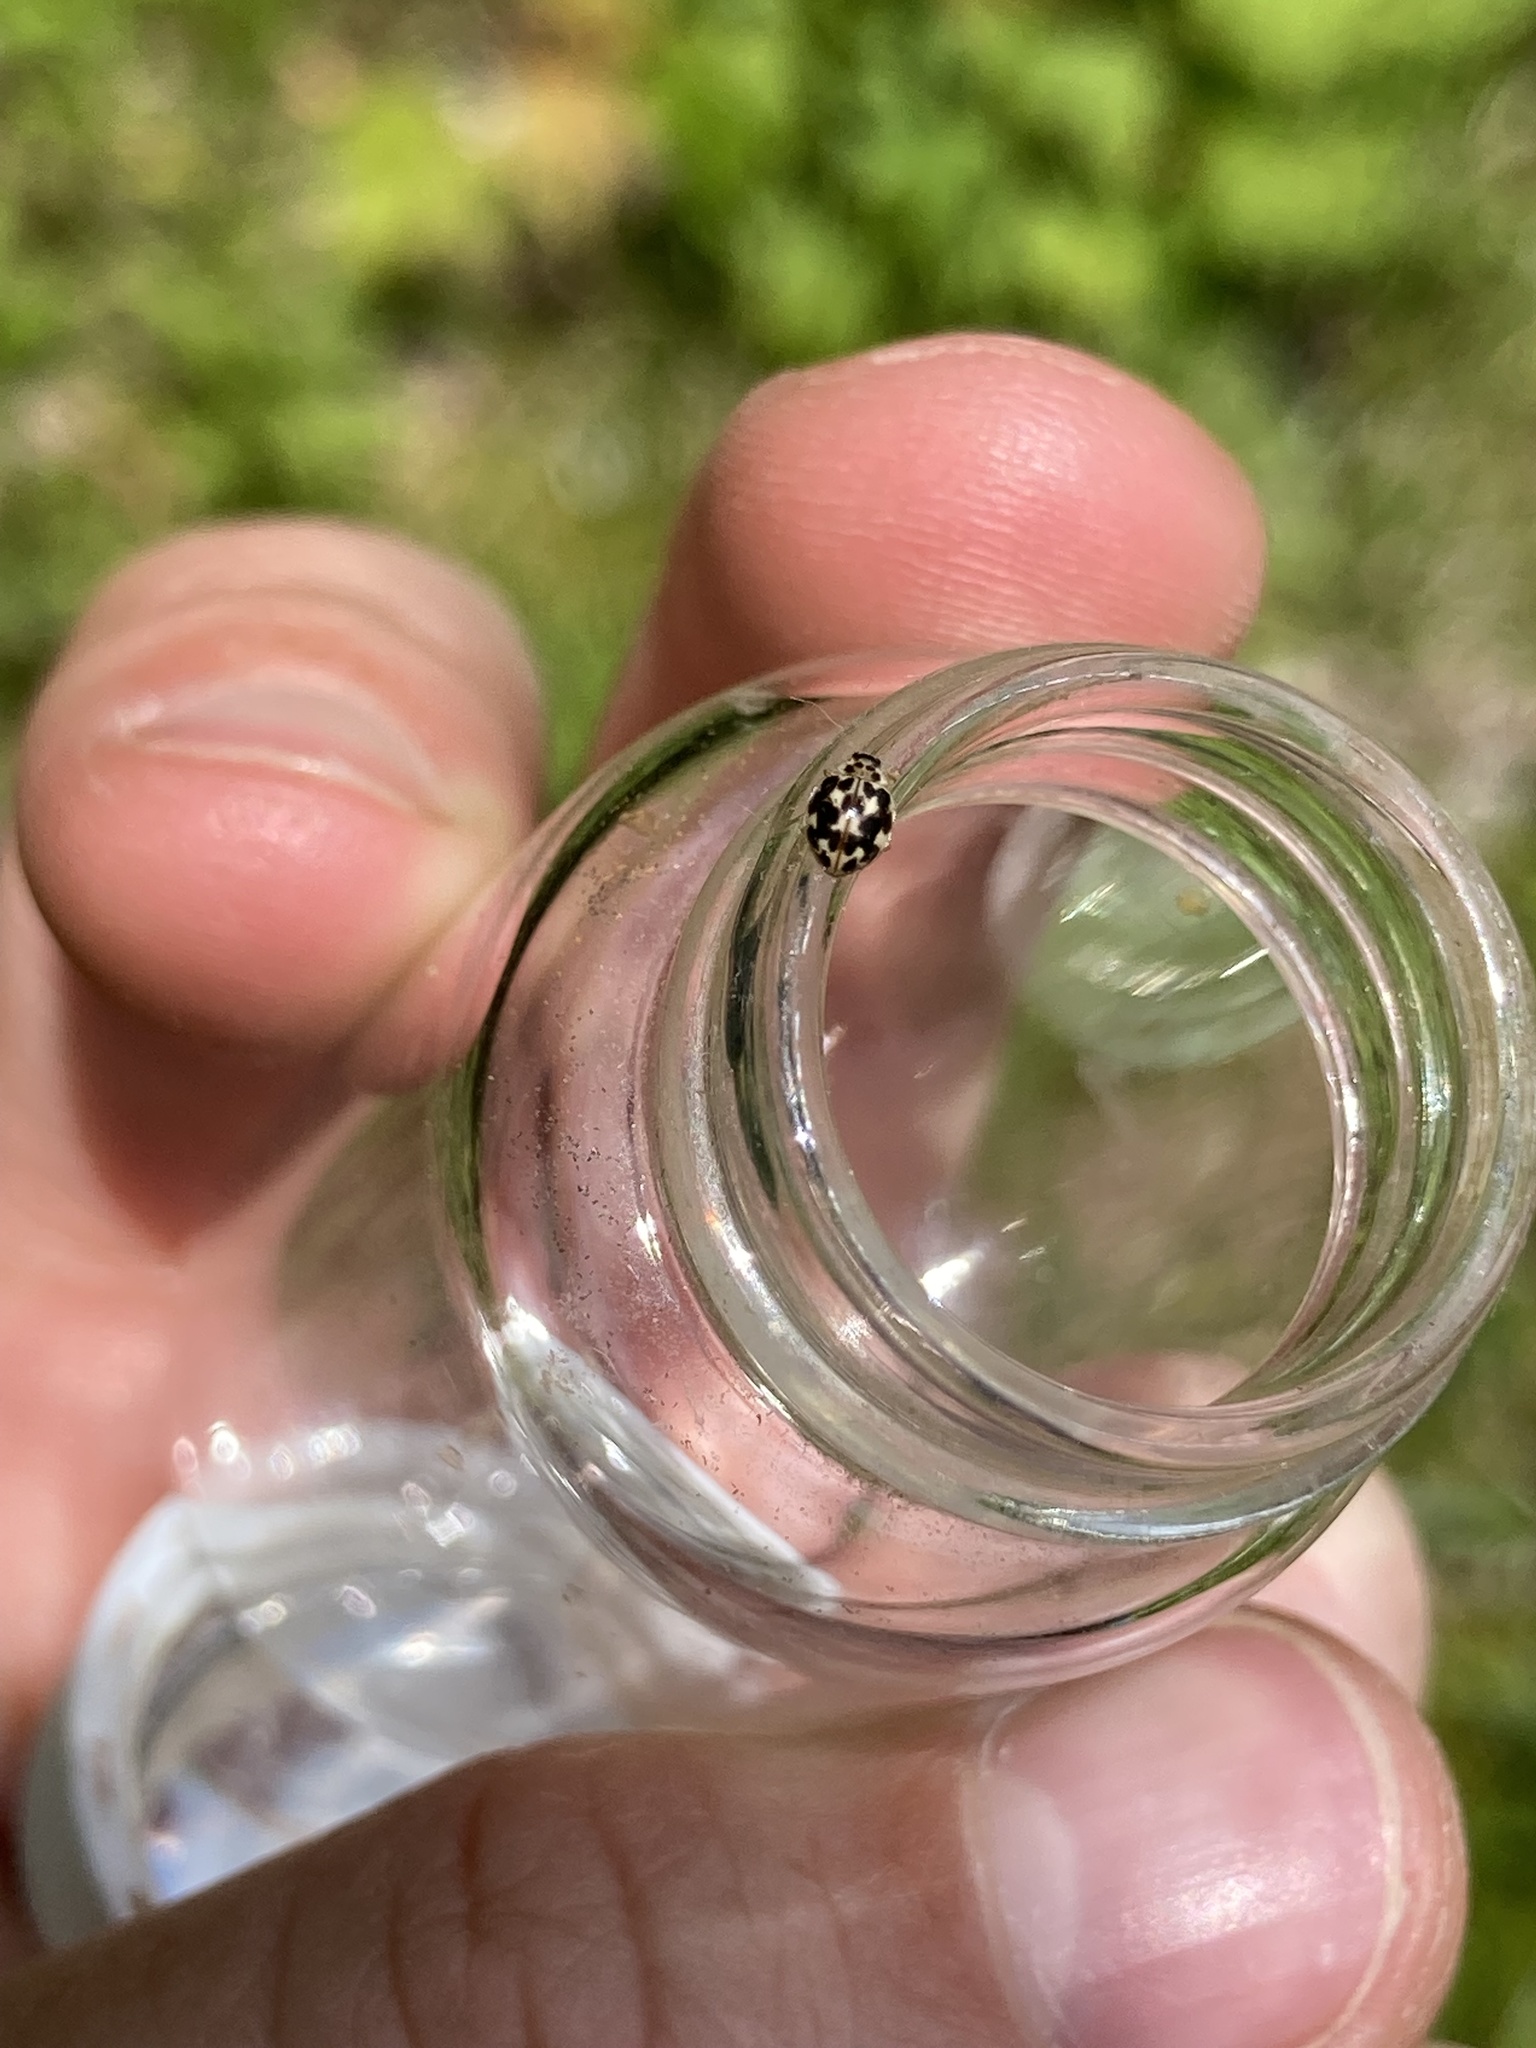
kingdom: Animalia
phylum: Arthropoda
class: Insecta
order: Coleoptera
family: Coccinellidae
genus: Psyllobora
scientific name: Psyllobora vigintimaculata
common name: Ladybird beetle
